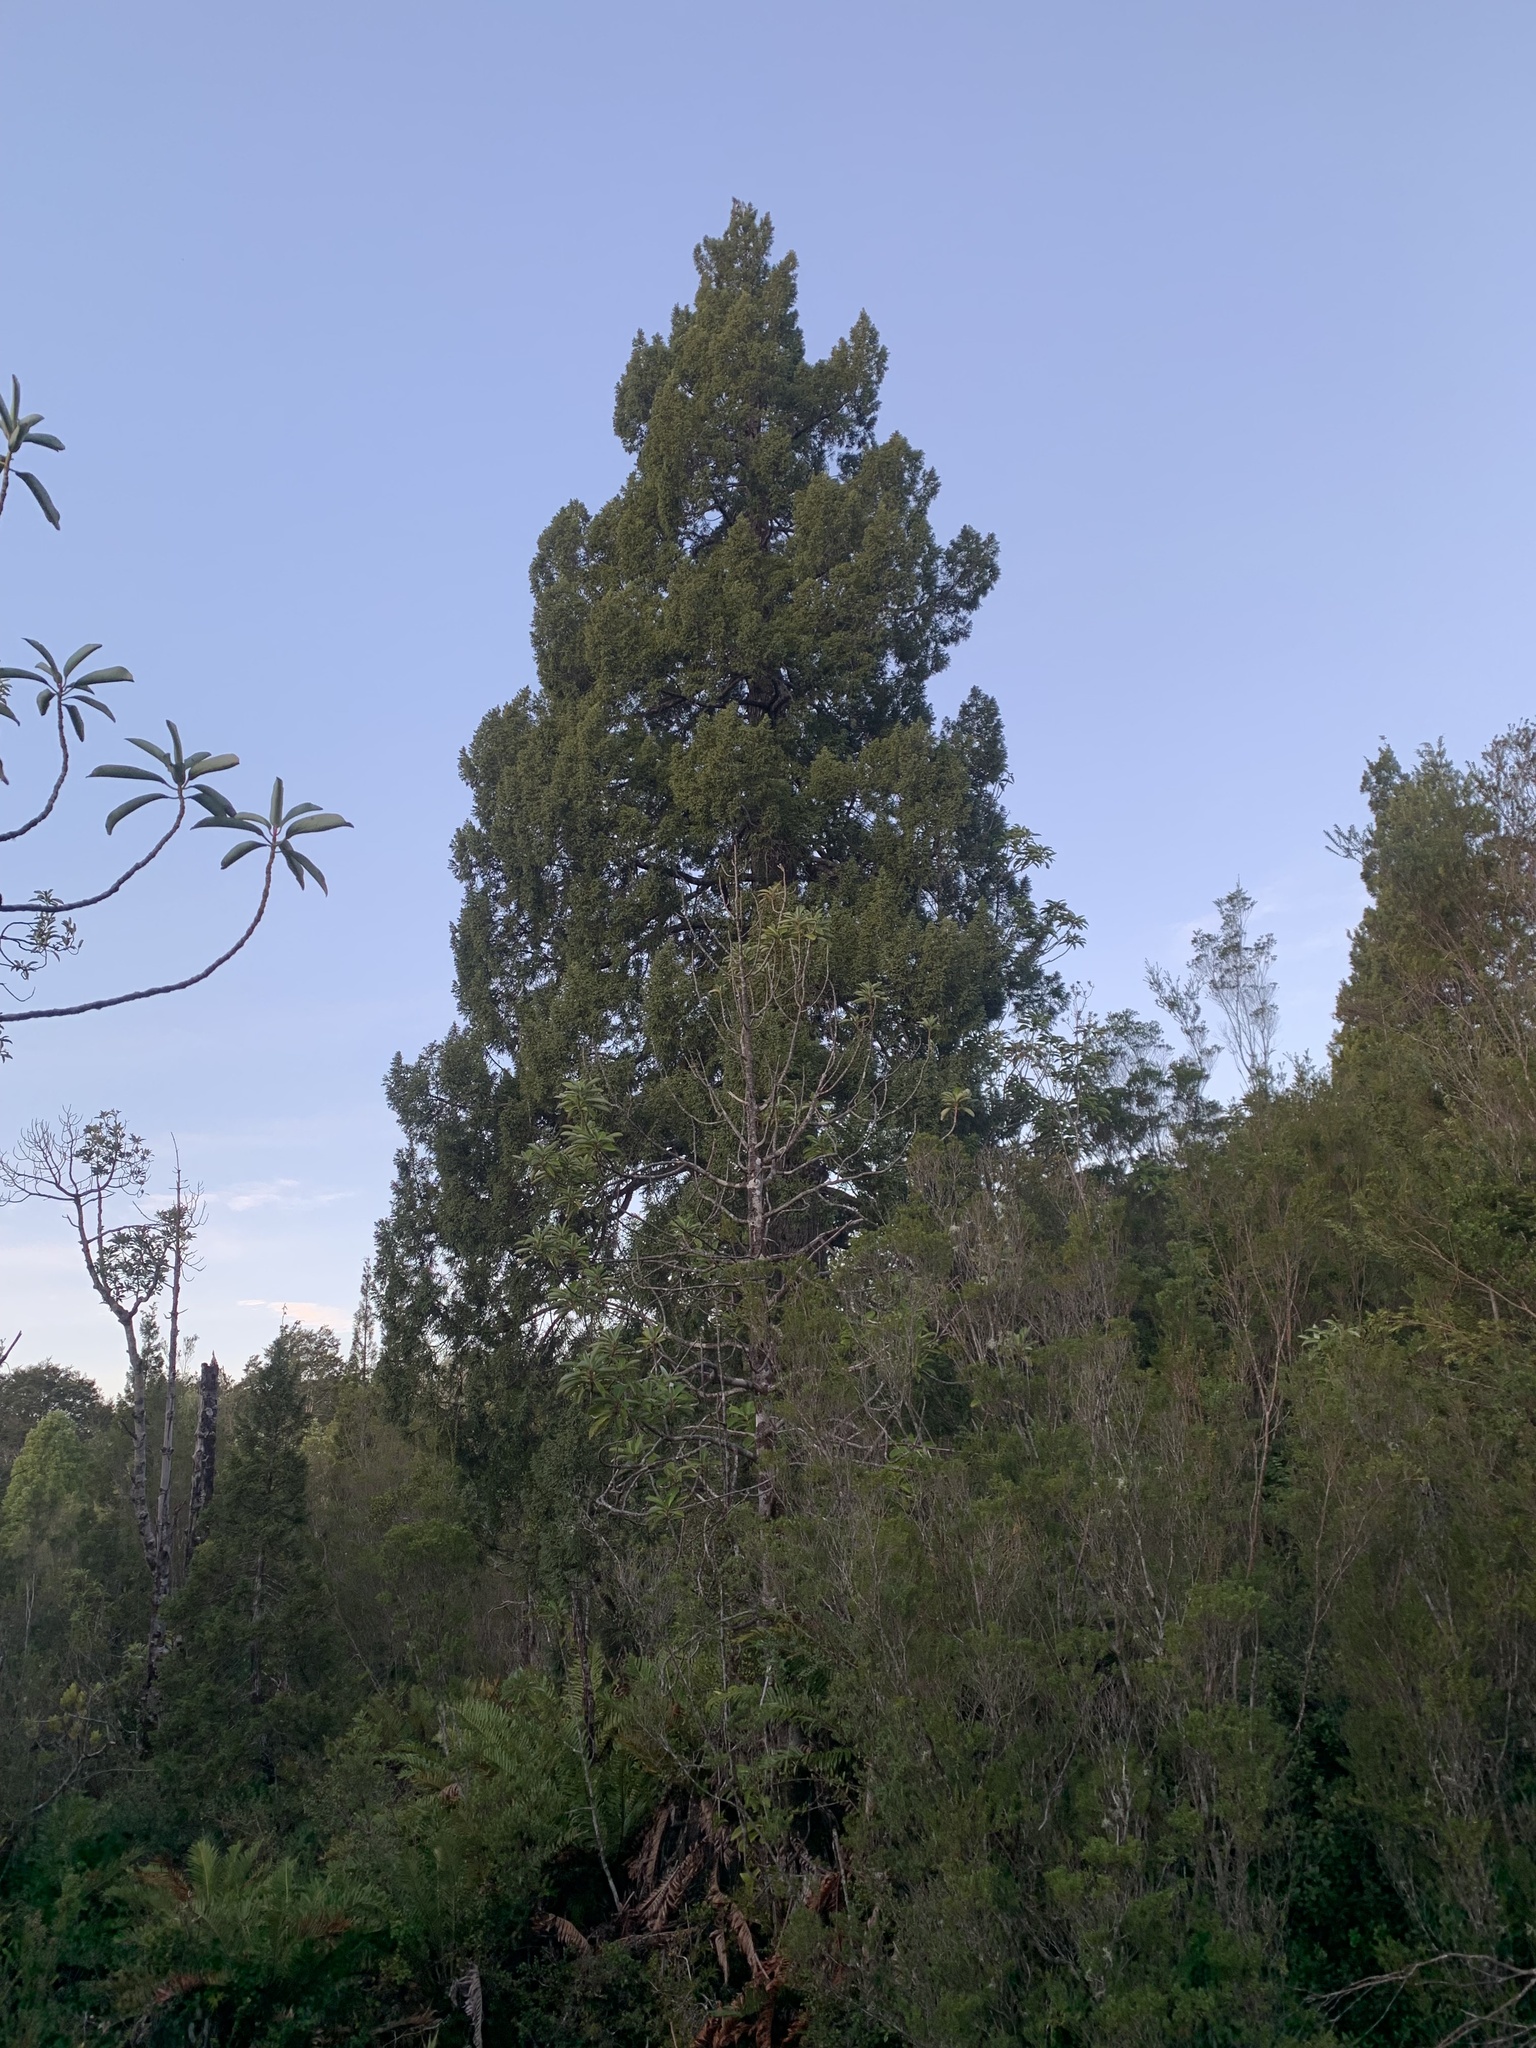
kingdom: Plantae
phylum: Tracheophyta
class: Pinopsida
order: Pinales
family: Cupressaceae
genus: Fitzroya
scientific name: Fitzroya cupressoides
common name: Patagonian cypress
